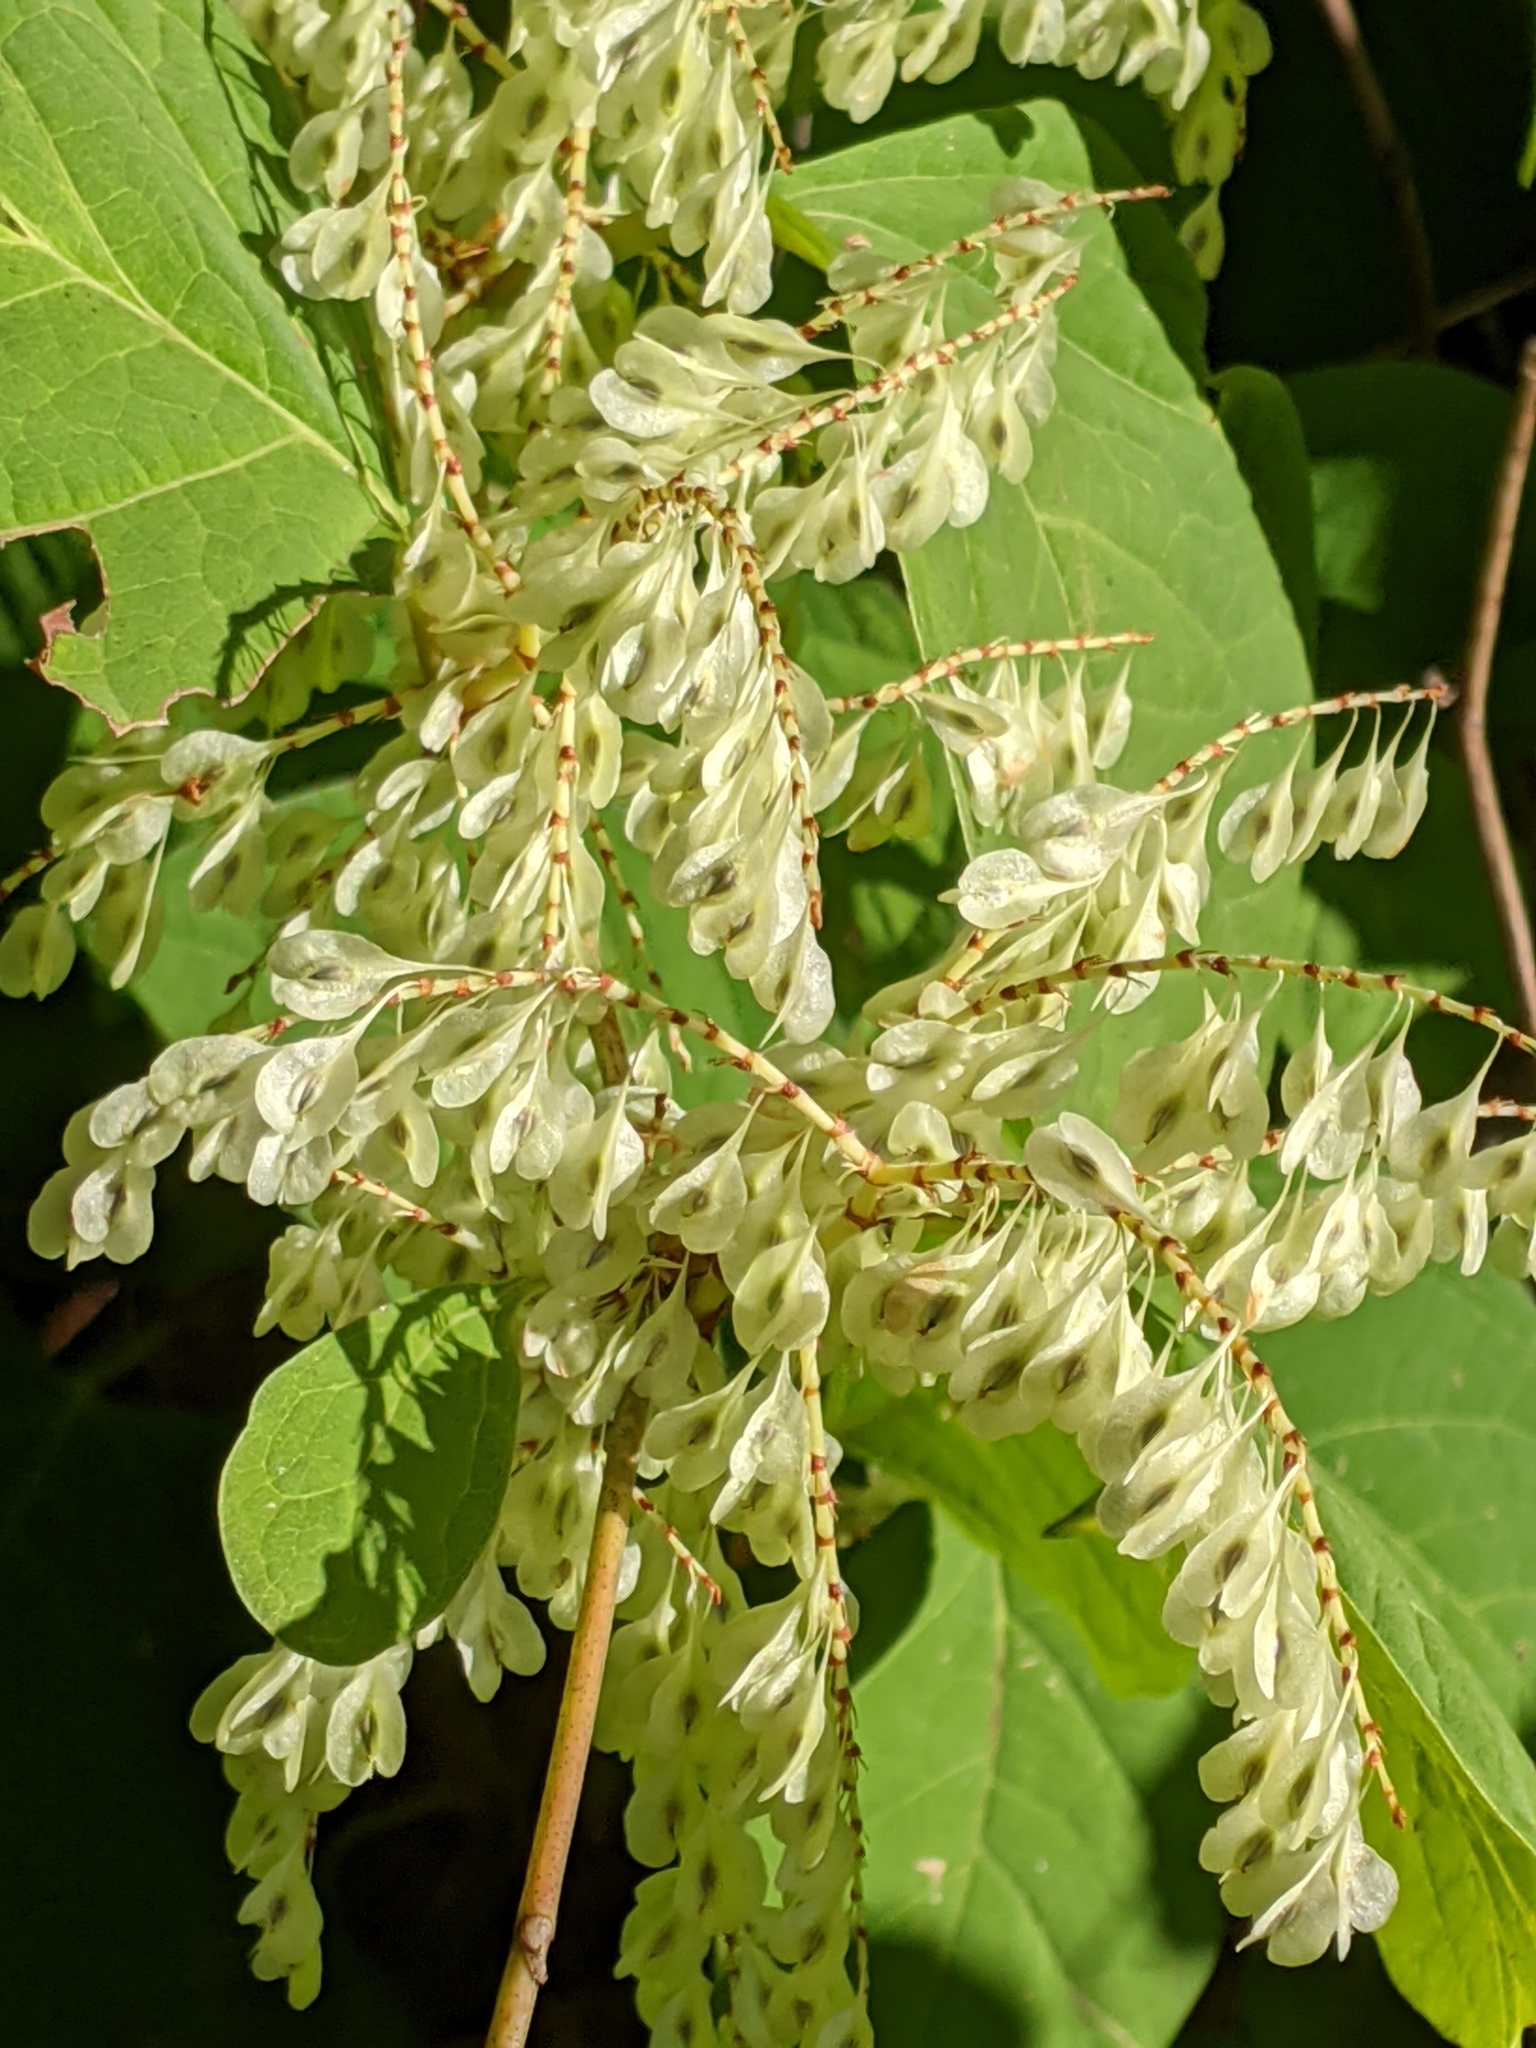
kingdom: Plantae
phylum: Tracheophyta
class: Magnoliopsida
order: Caryophyllales
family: Polygonaceae
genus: Reynoutria
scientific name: Reynoutria japonica
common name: Japanese knotweed
